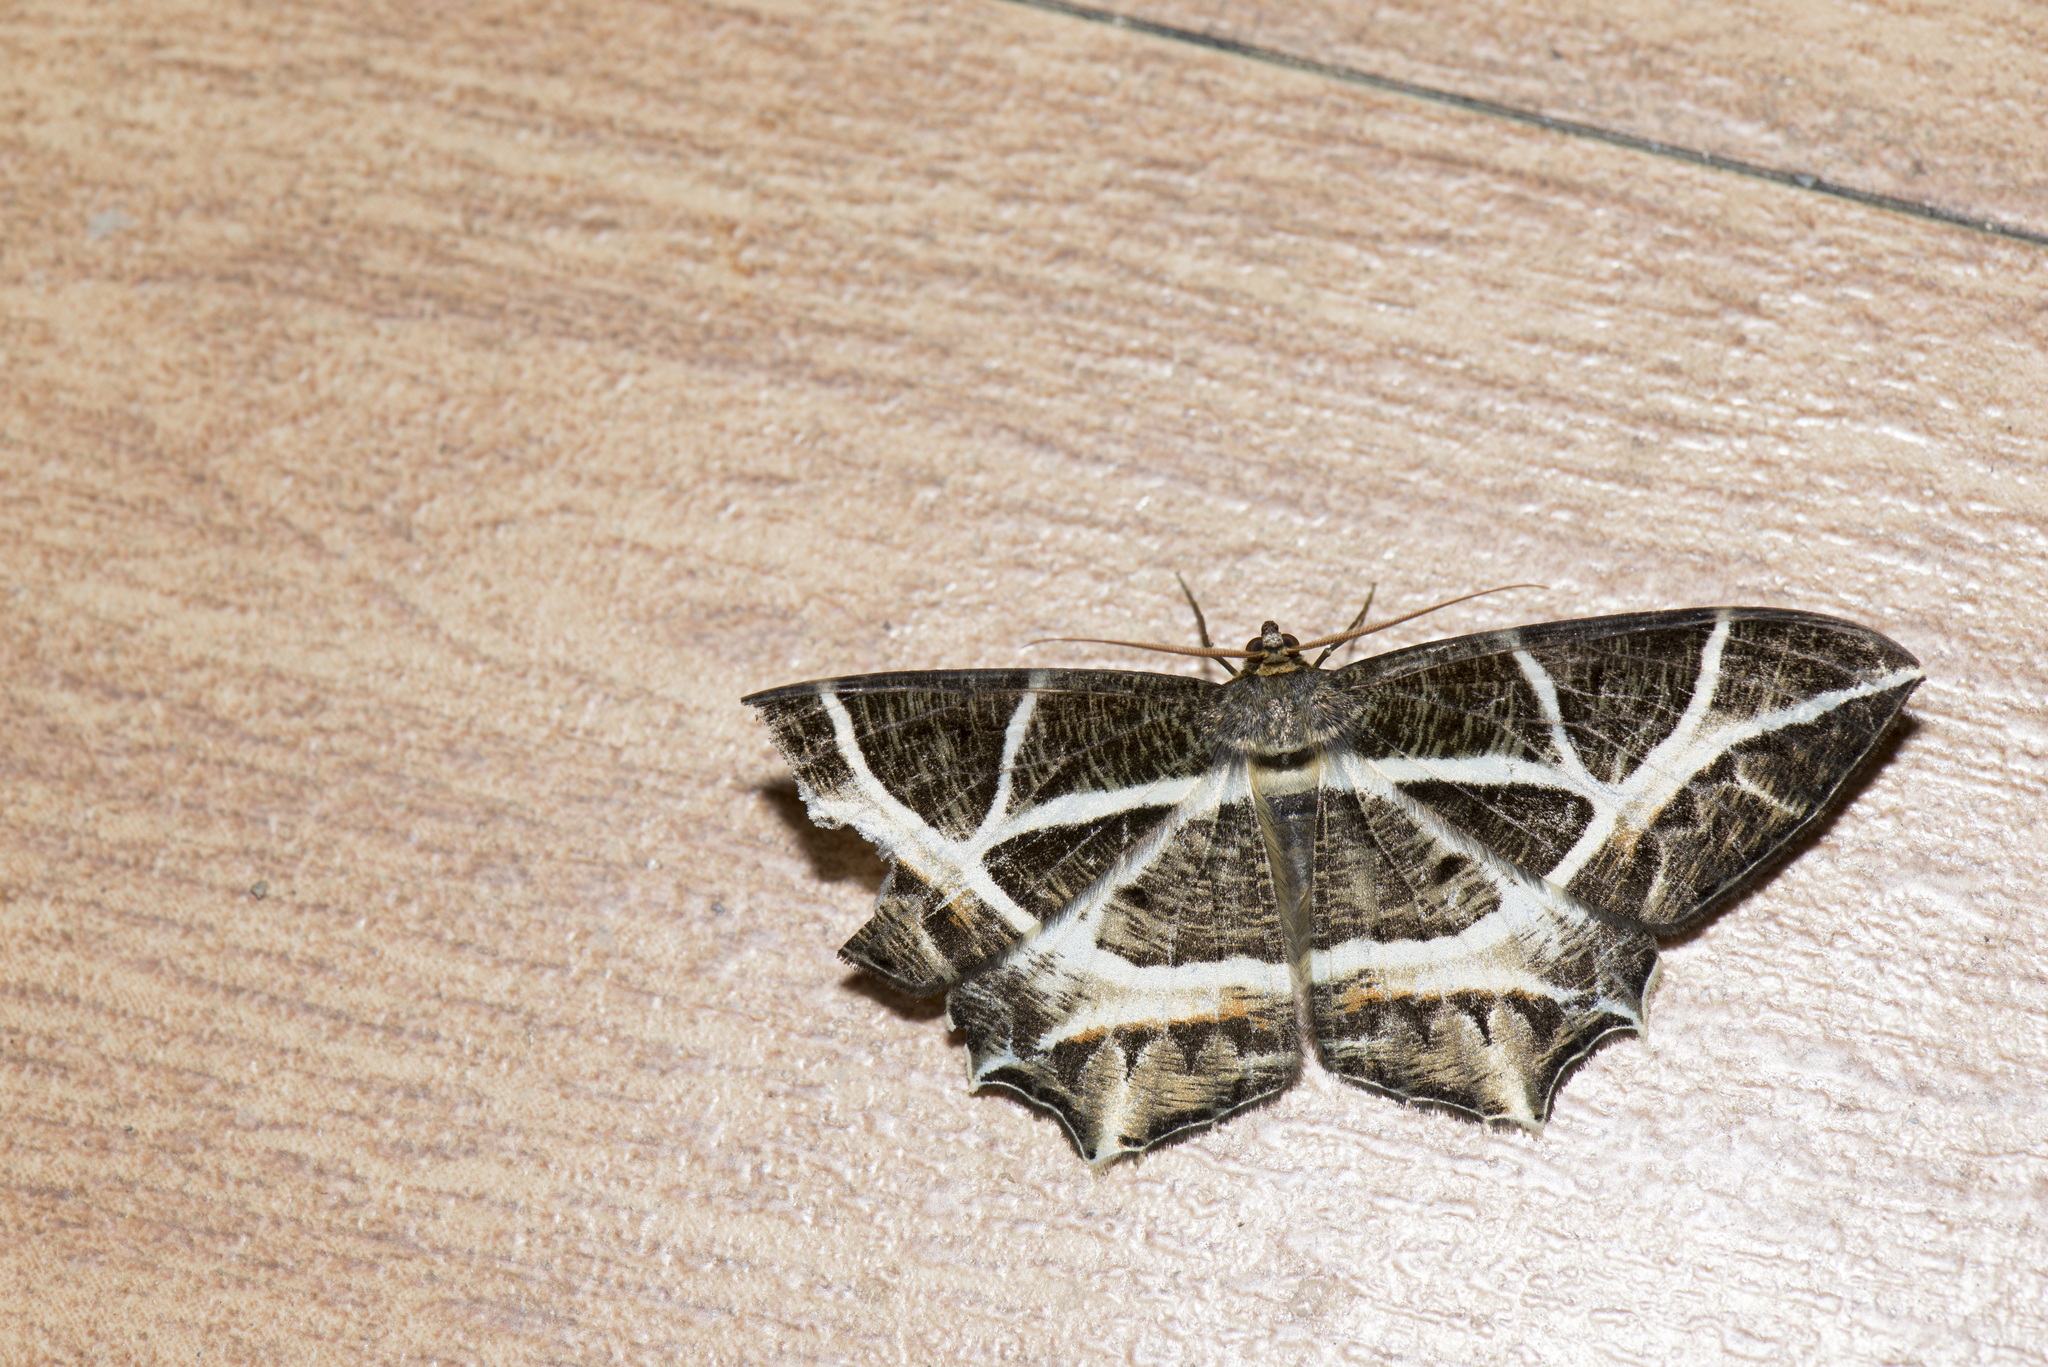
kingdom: Animalia
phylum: Arthropoda
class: Insecta
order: Lepidoptera
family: Geometridae
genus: Mesastrape
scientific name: Mesastrape fulguraria
